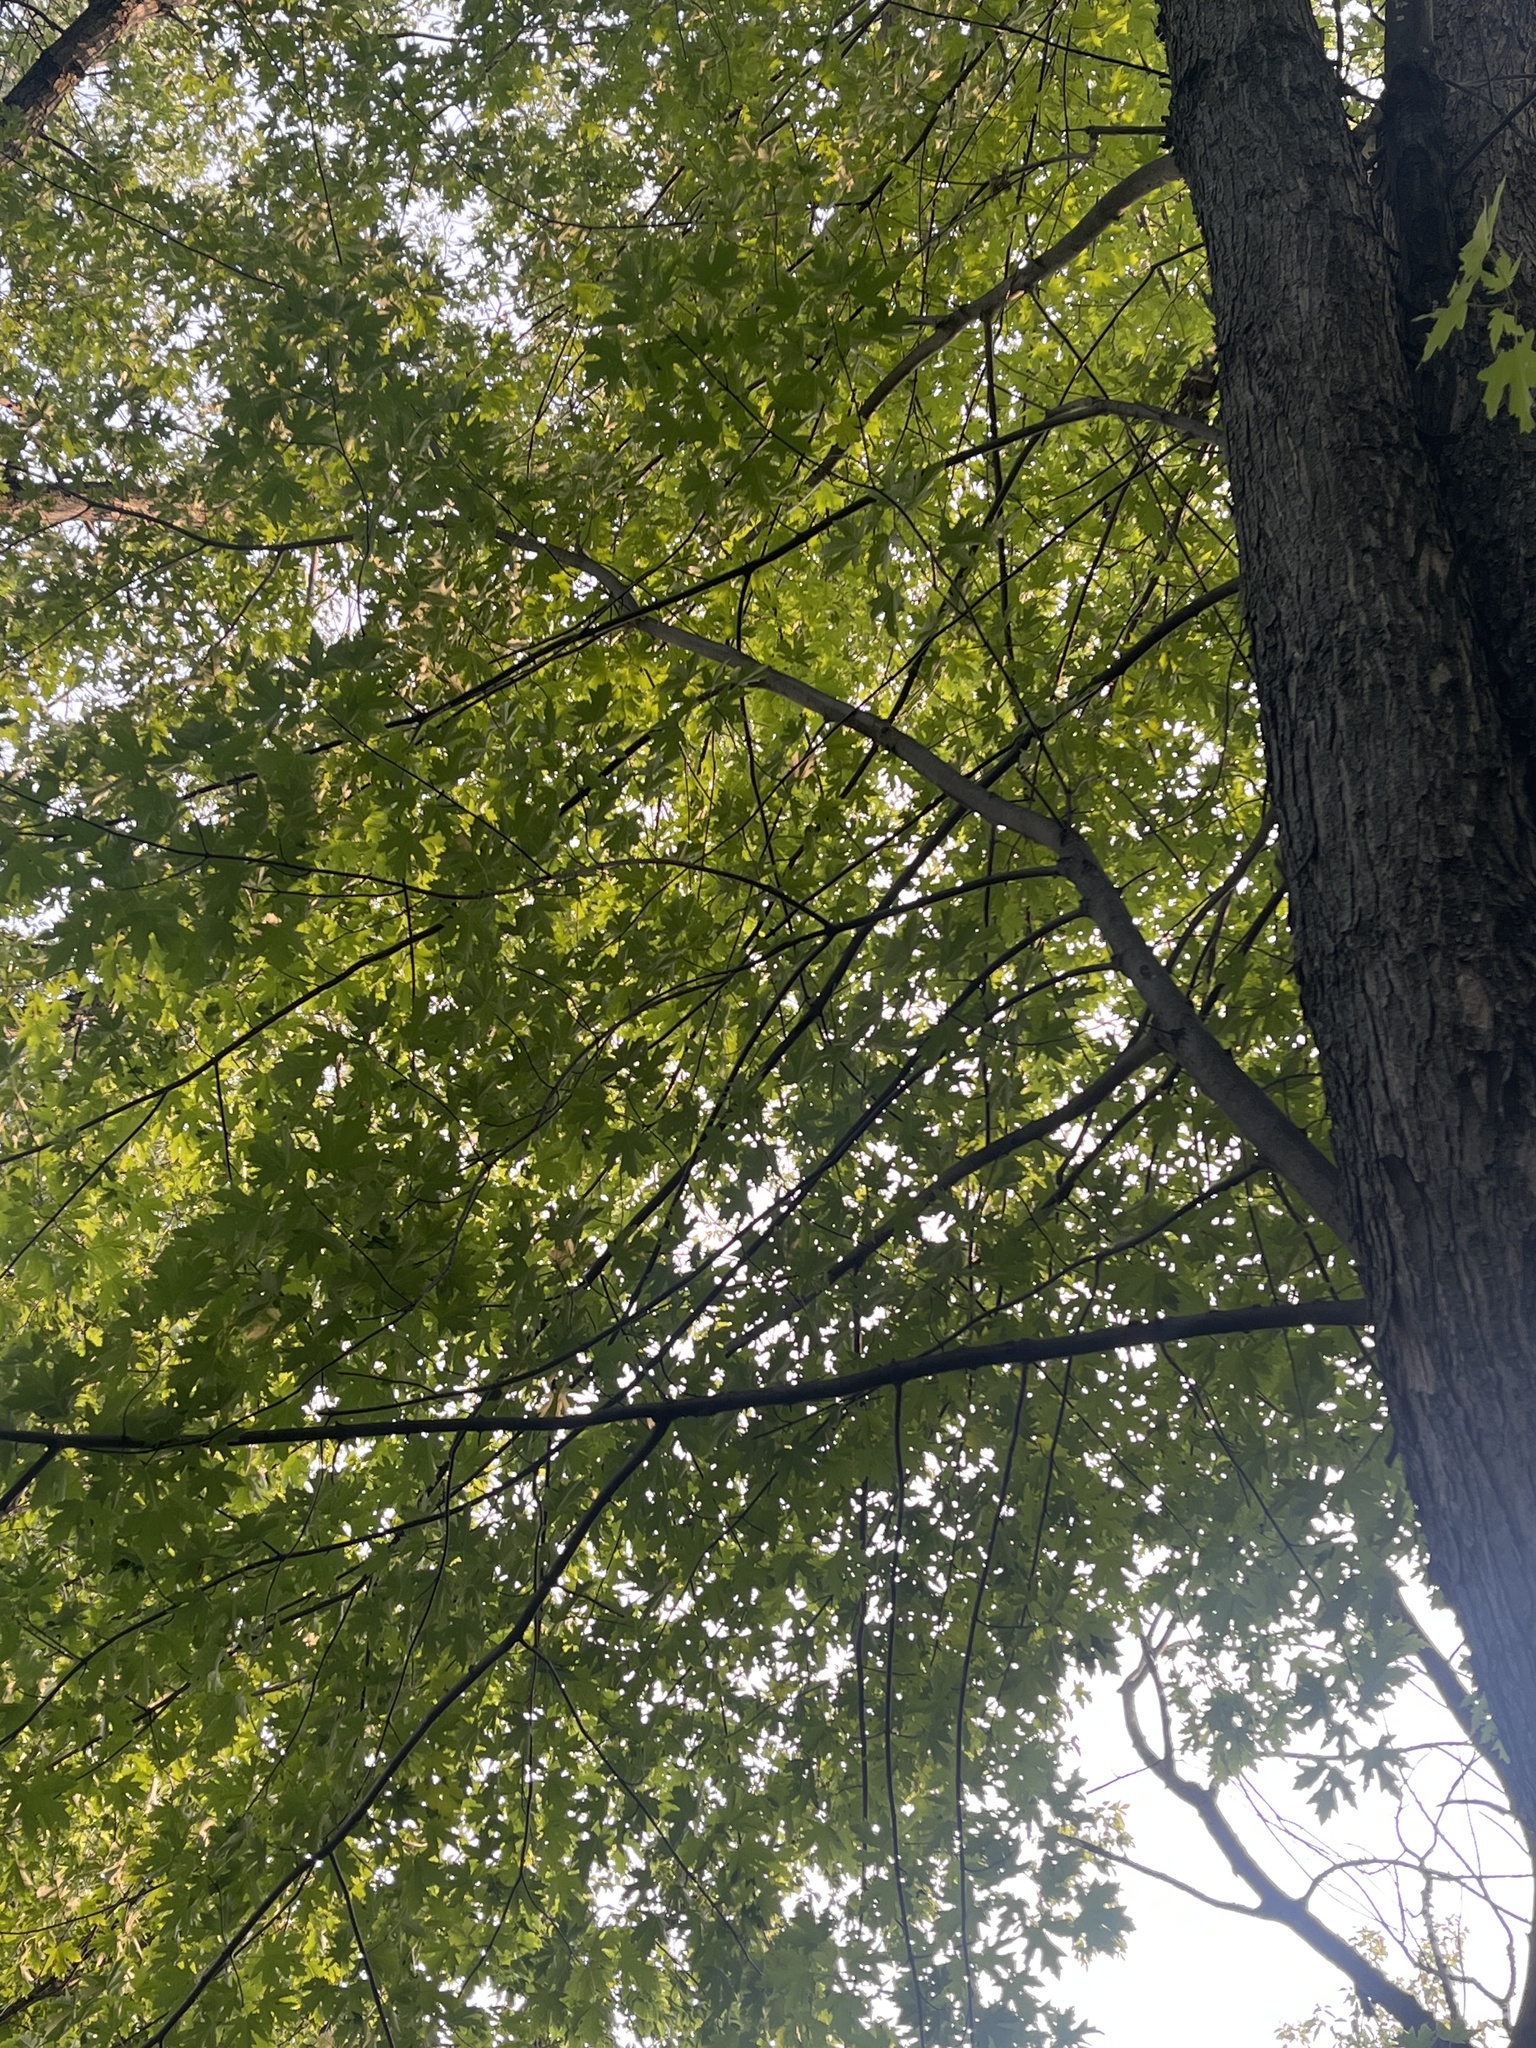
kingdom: Plantae
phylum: Tracheophyta
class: Magnoliopsida
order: Sapindales
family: Sapindaceae
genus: Acer
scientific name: Acer saccharinum
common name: Silver maple
